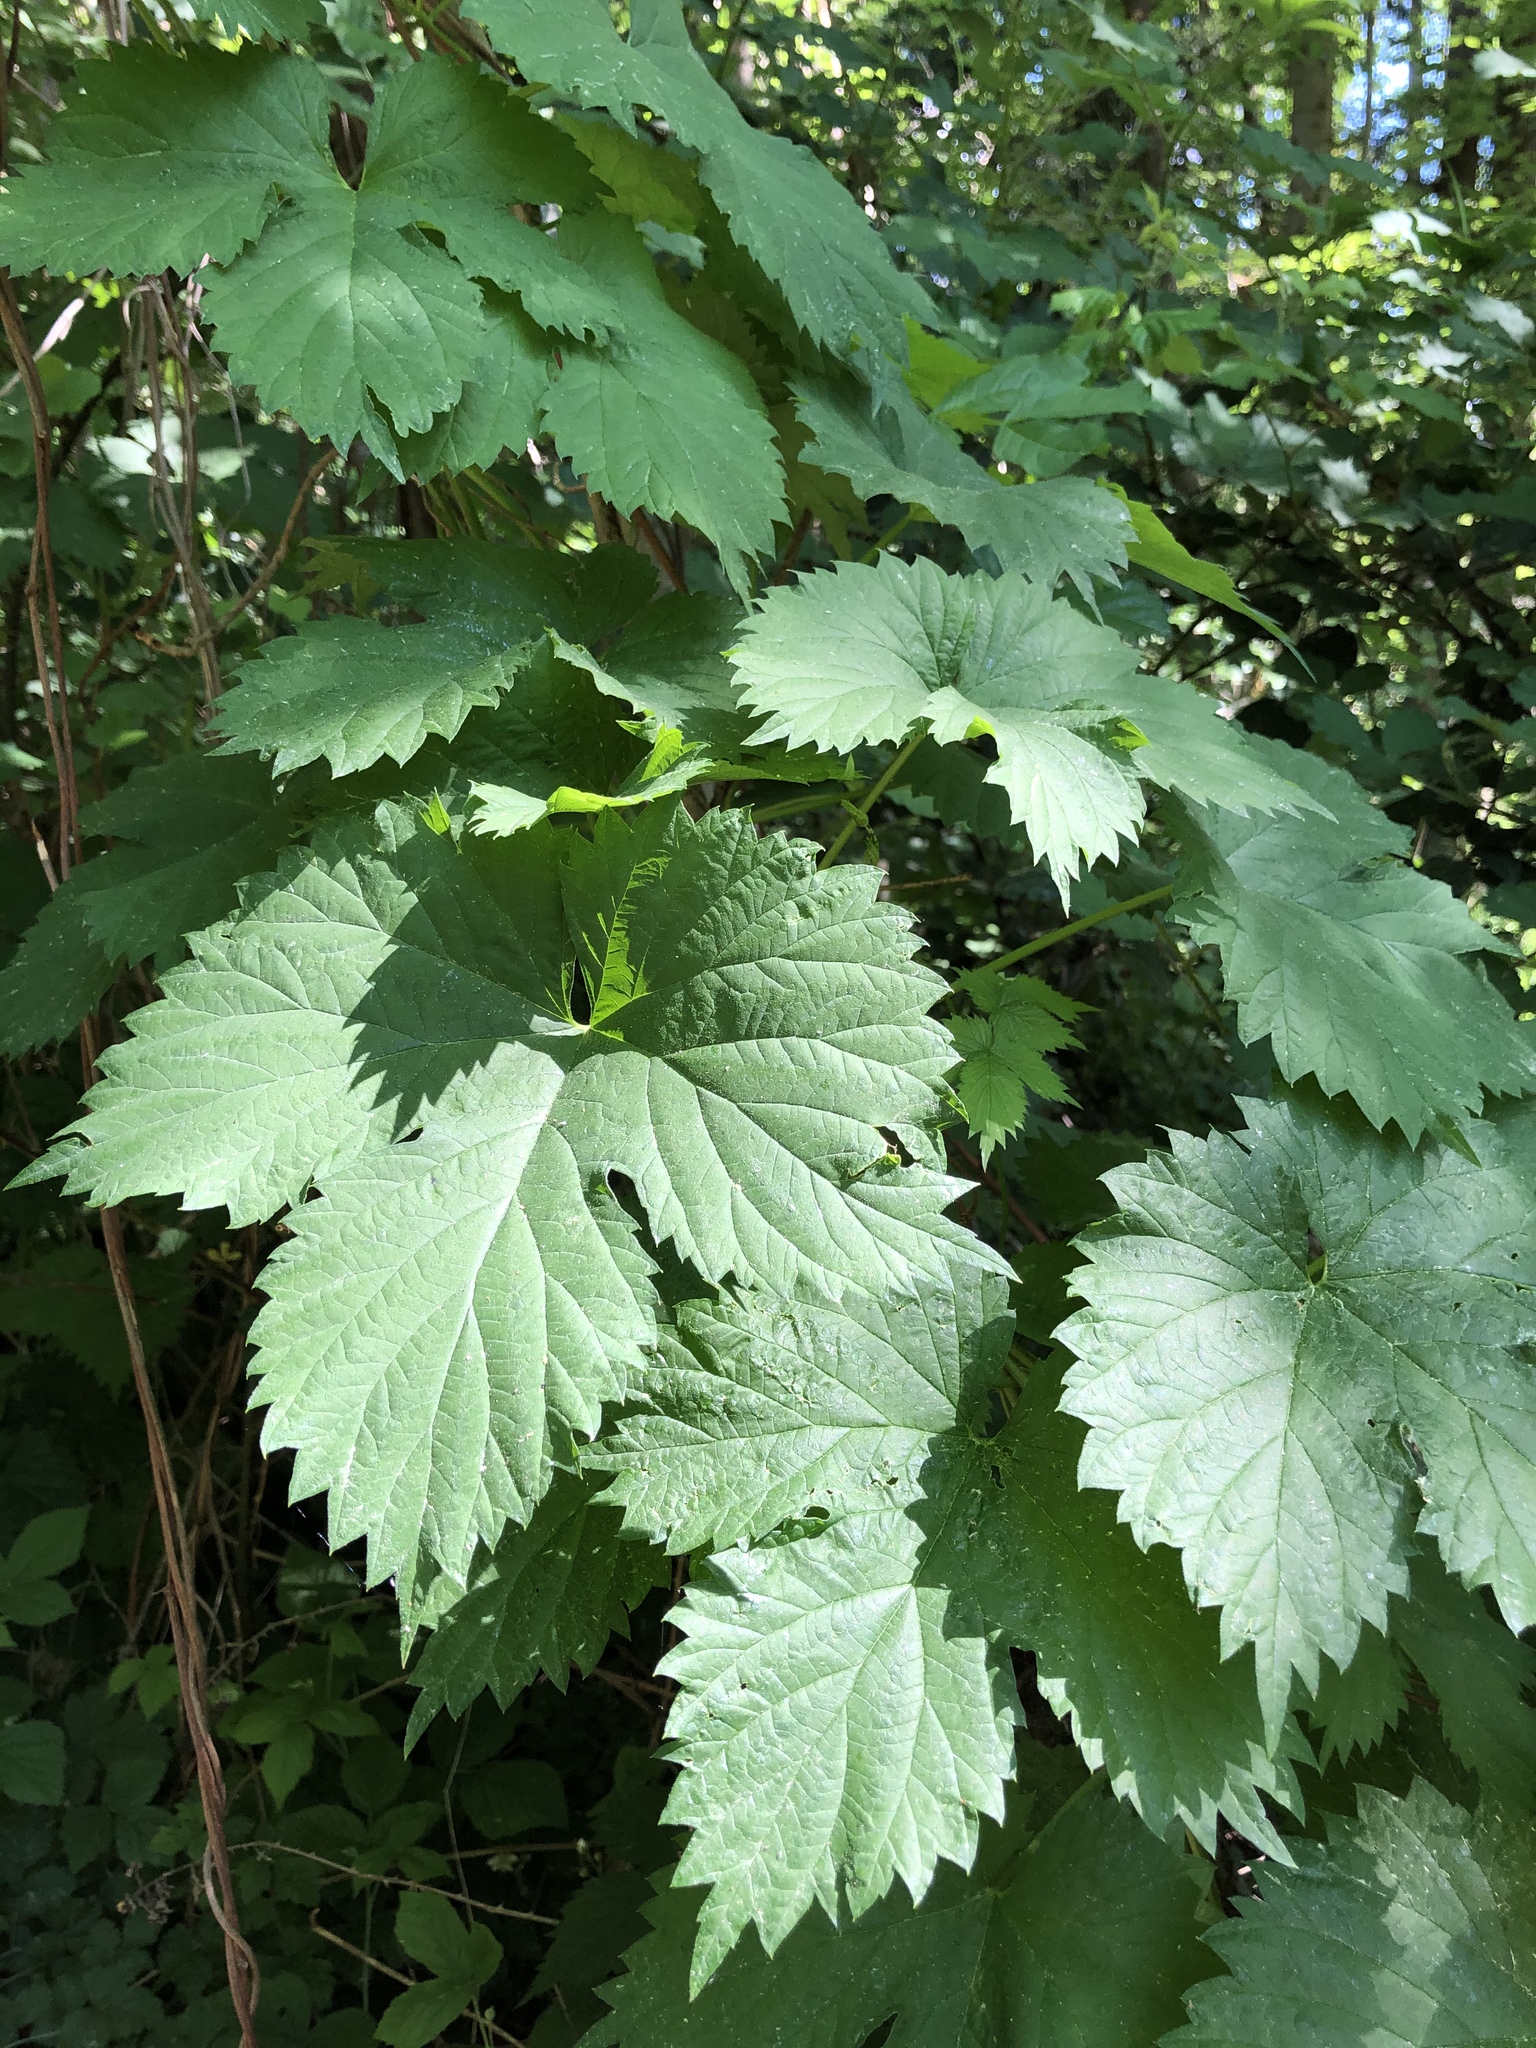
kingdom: Plantae
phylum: Tracheophyta
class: Magnoliopsida
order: Rosales
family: Cannabaceae
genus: Humulus
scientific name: Humulus lupulus
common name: Hop
